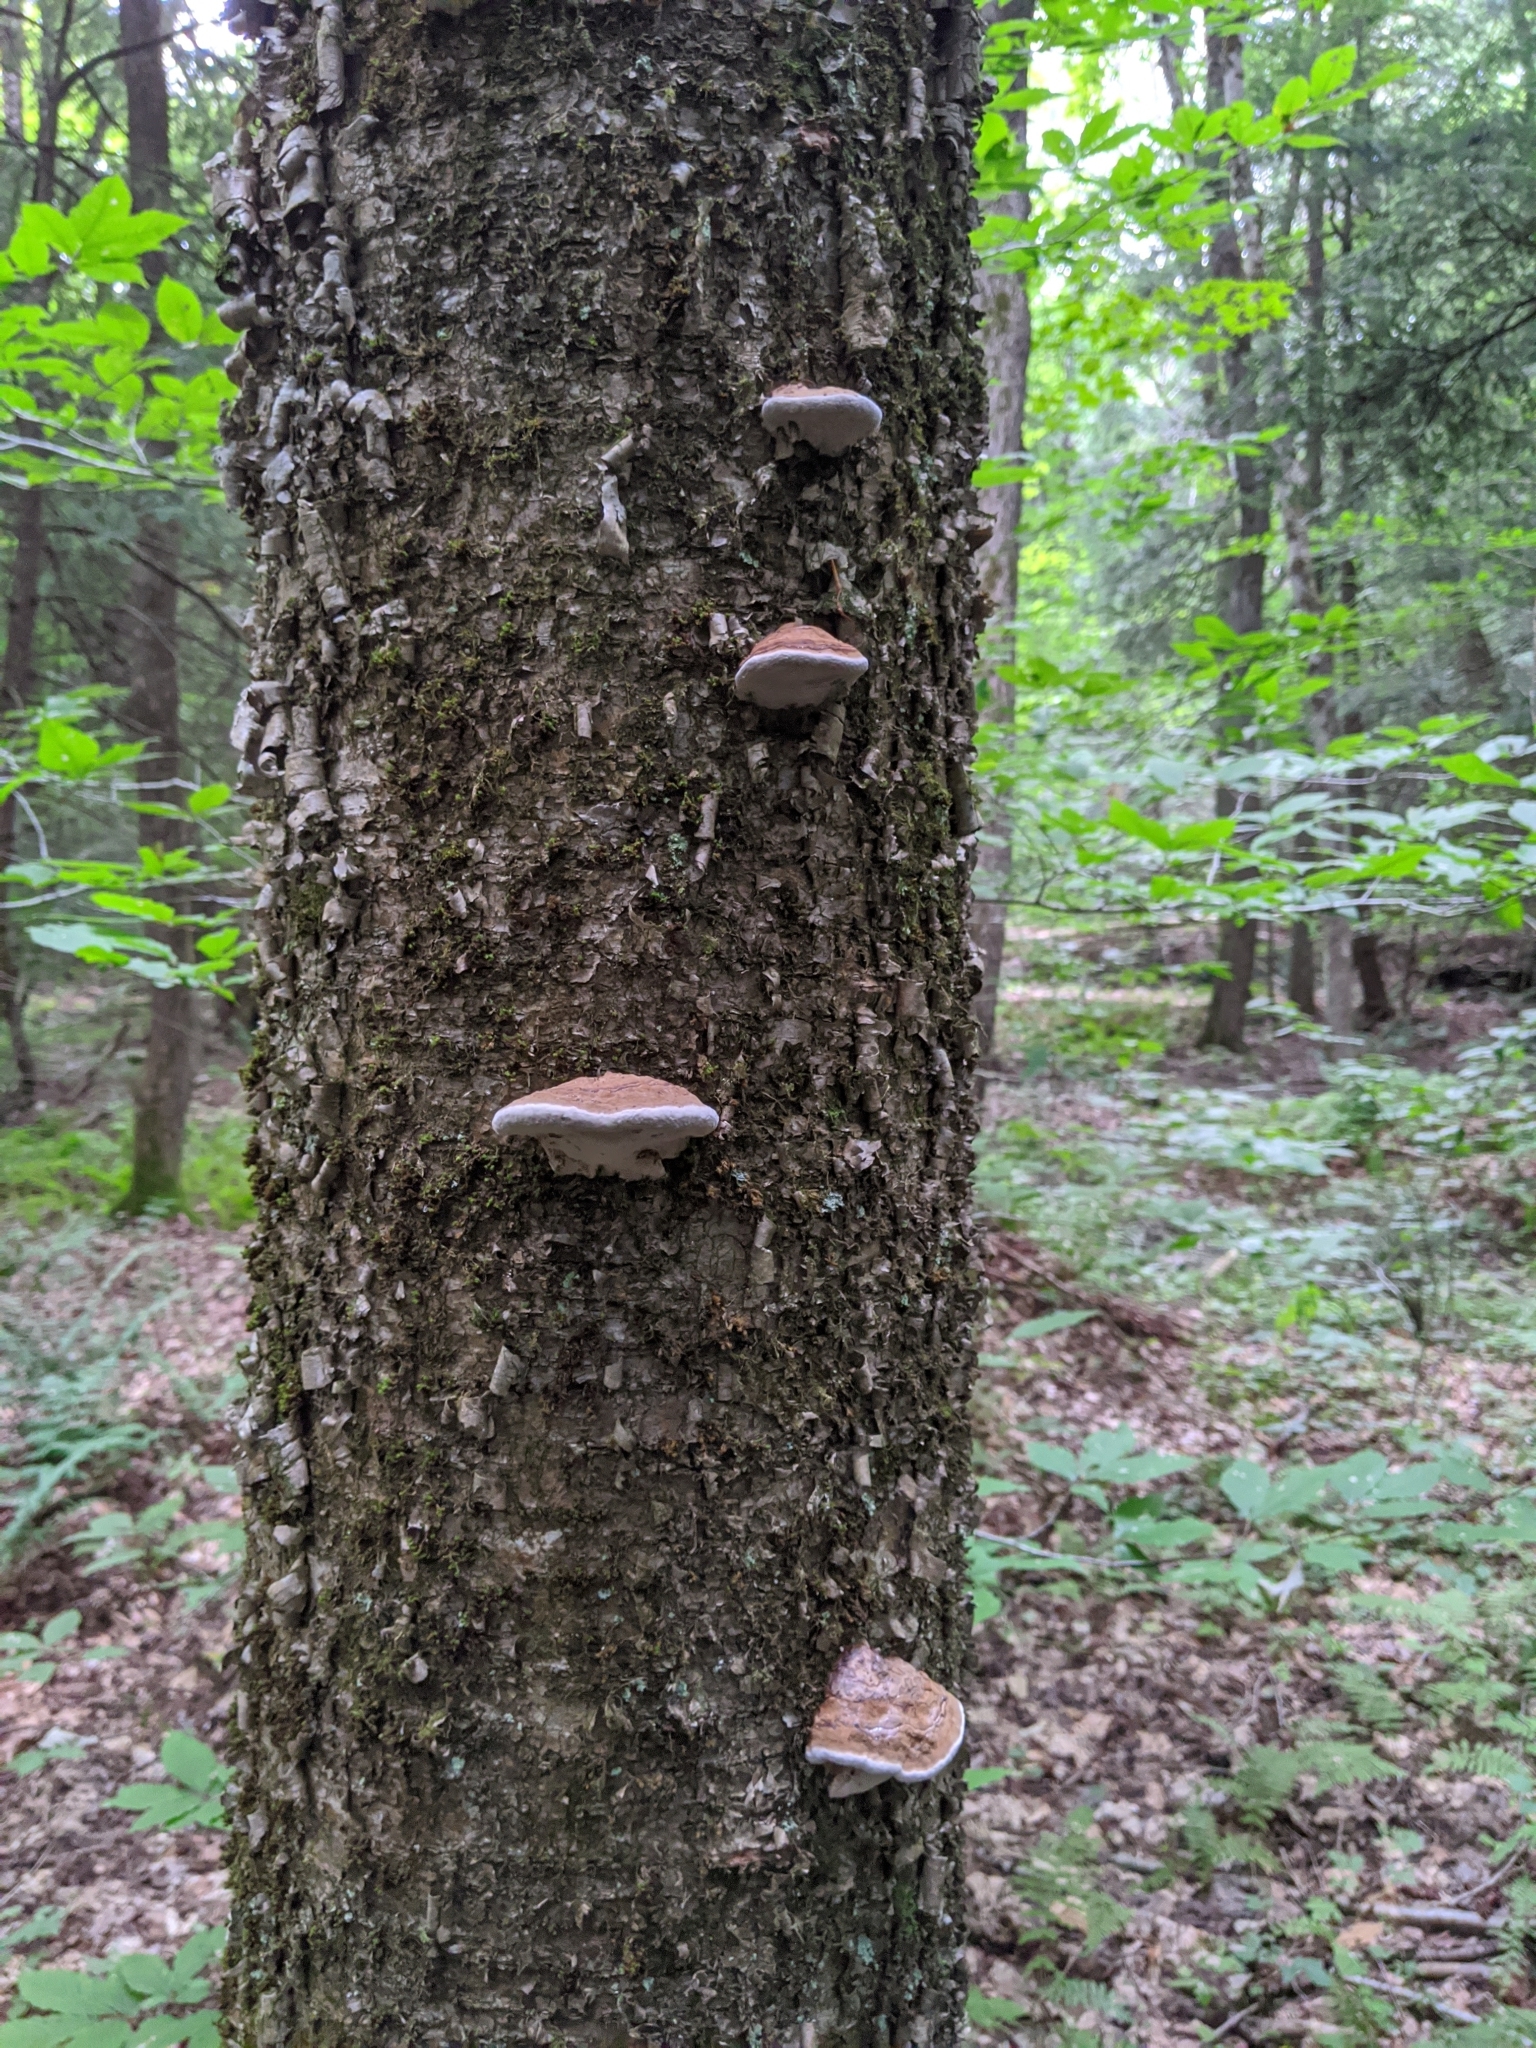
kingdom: Fungi
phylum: Basidiomycota
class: Agaricomycetes
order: Polyporales
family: Polyporaceae
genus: Ganoderma
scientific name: Ganoderma applanatum
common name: Artist's bracket
